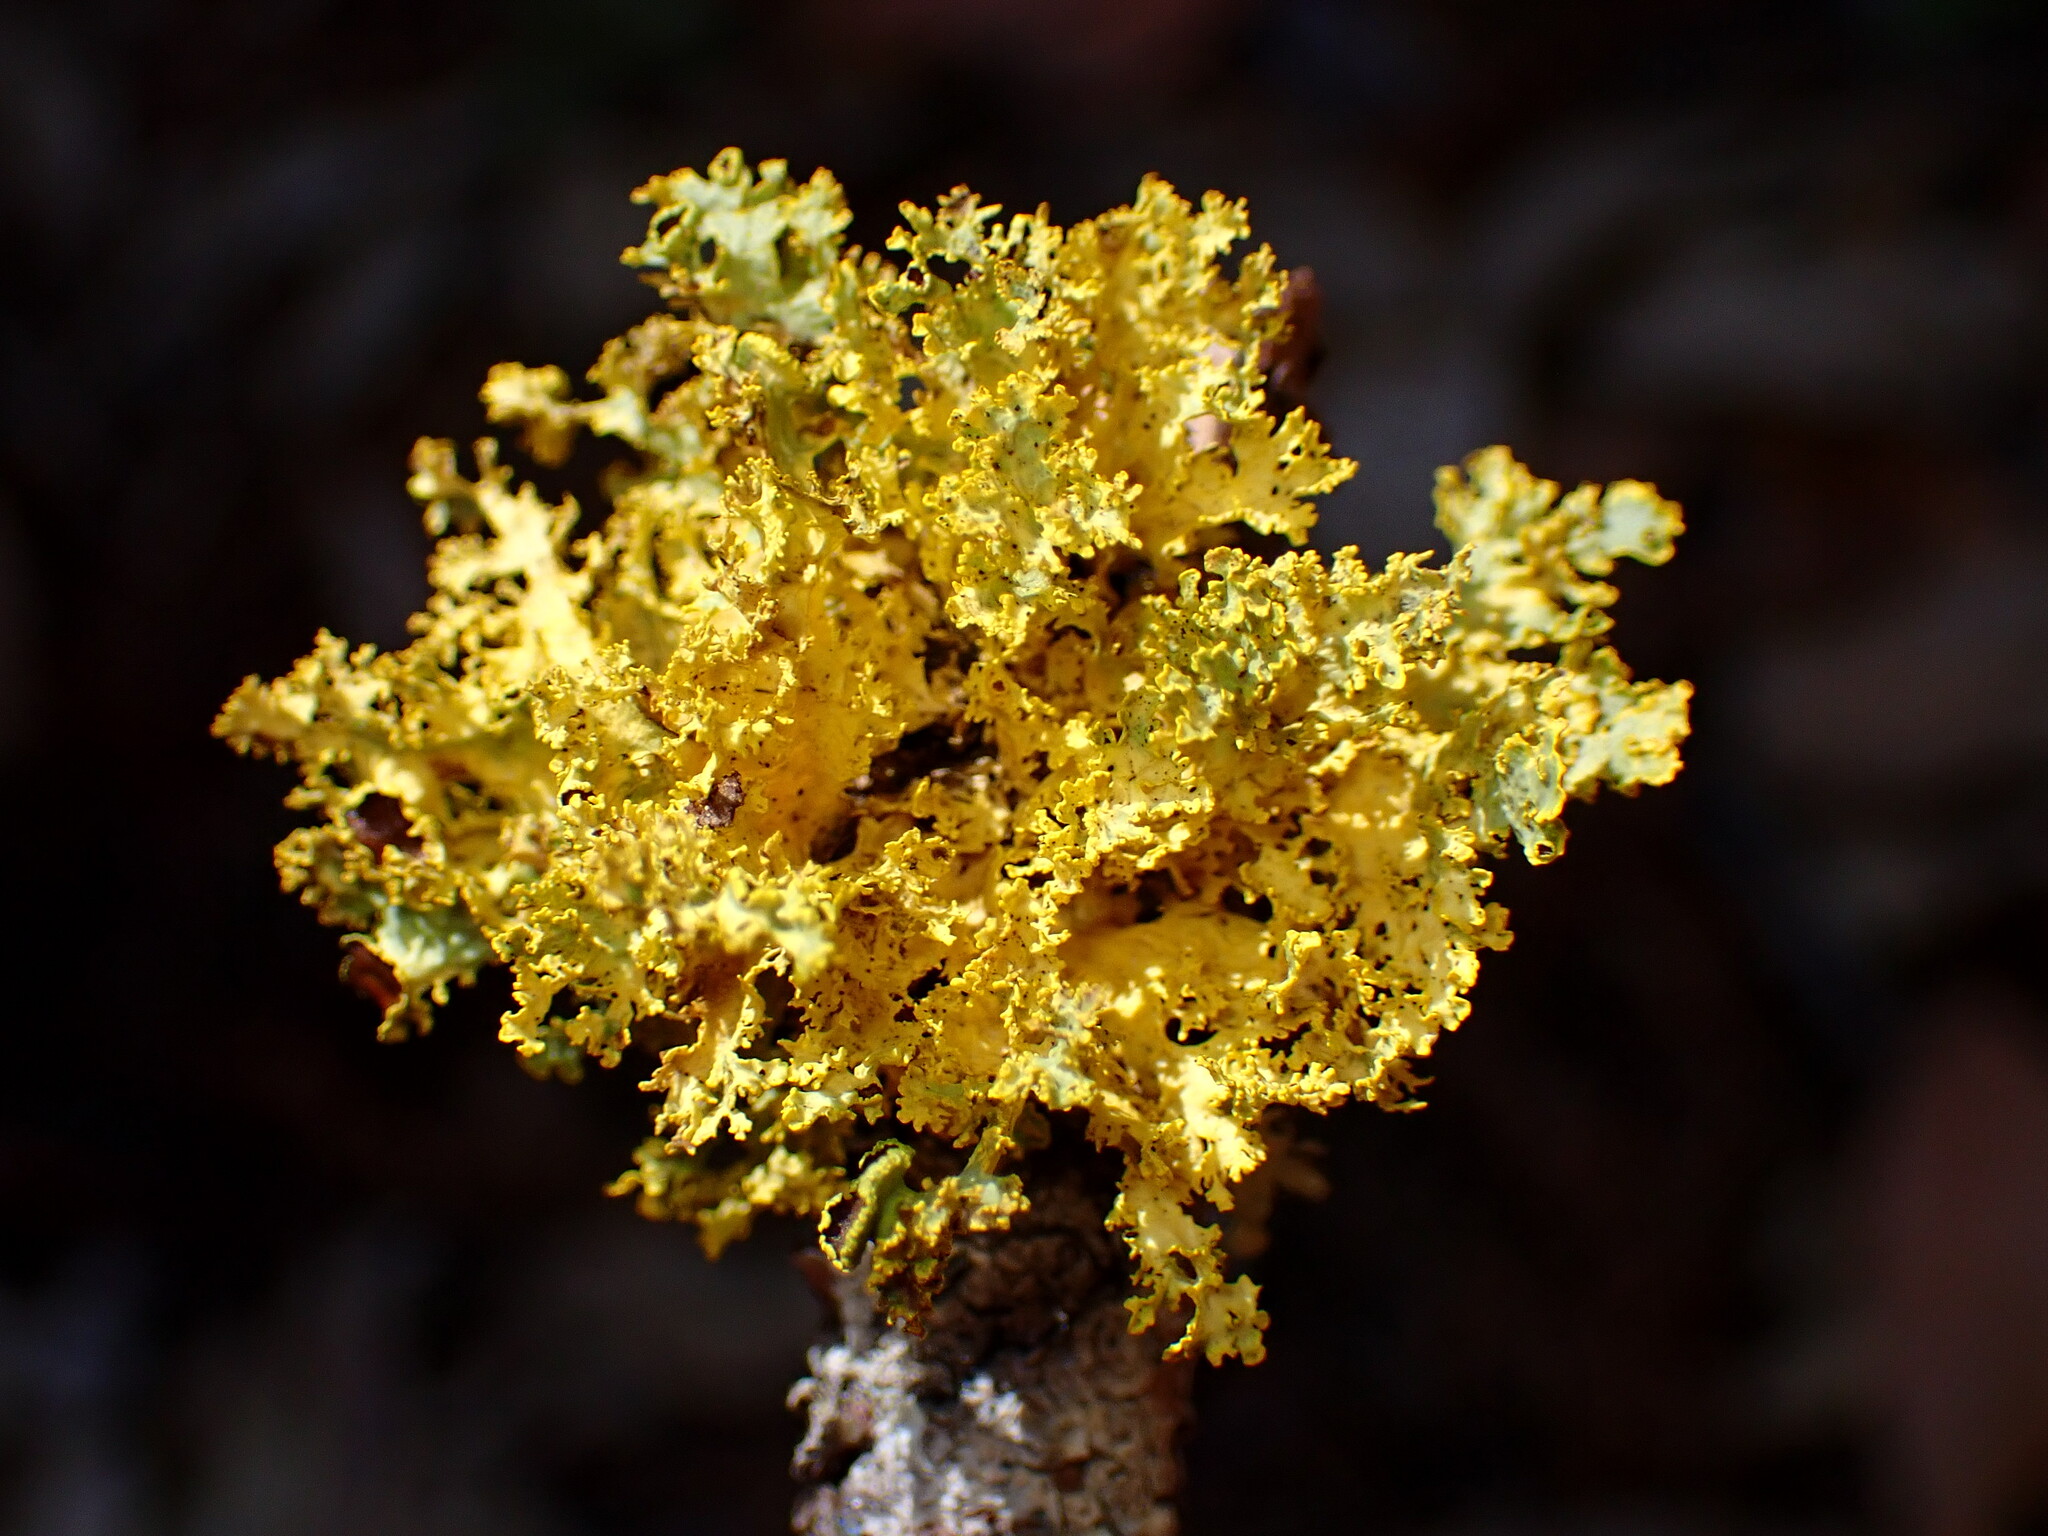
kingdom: Fungi
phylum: Ascomycota
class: Lecanoromycetes
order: Lecanorales
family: Parmeliaceae
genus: Vulpicida
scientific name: Vulpicida canadensis
